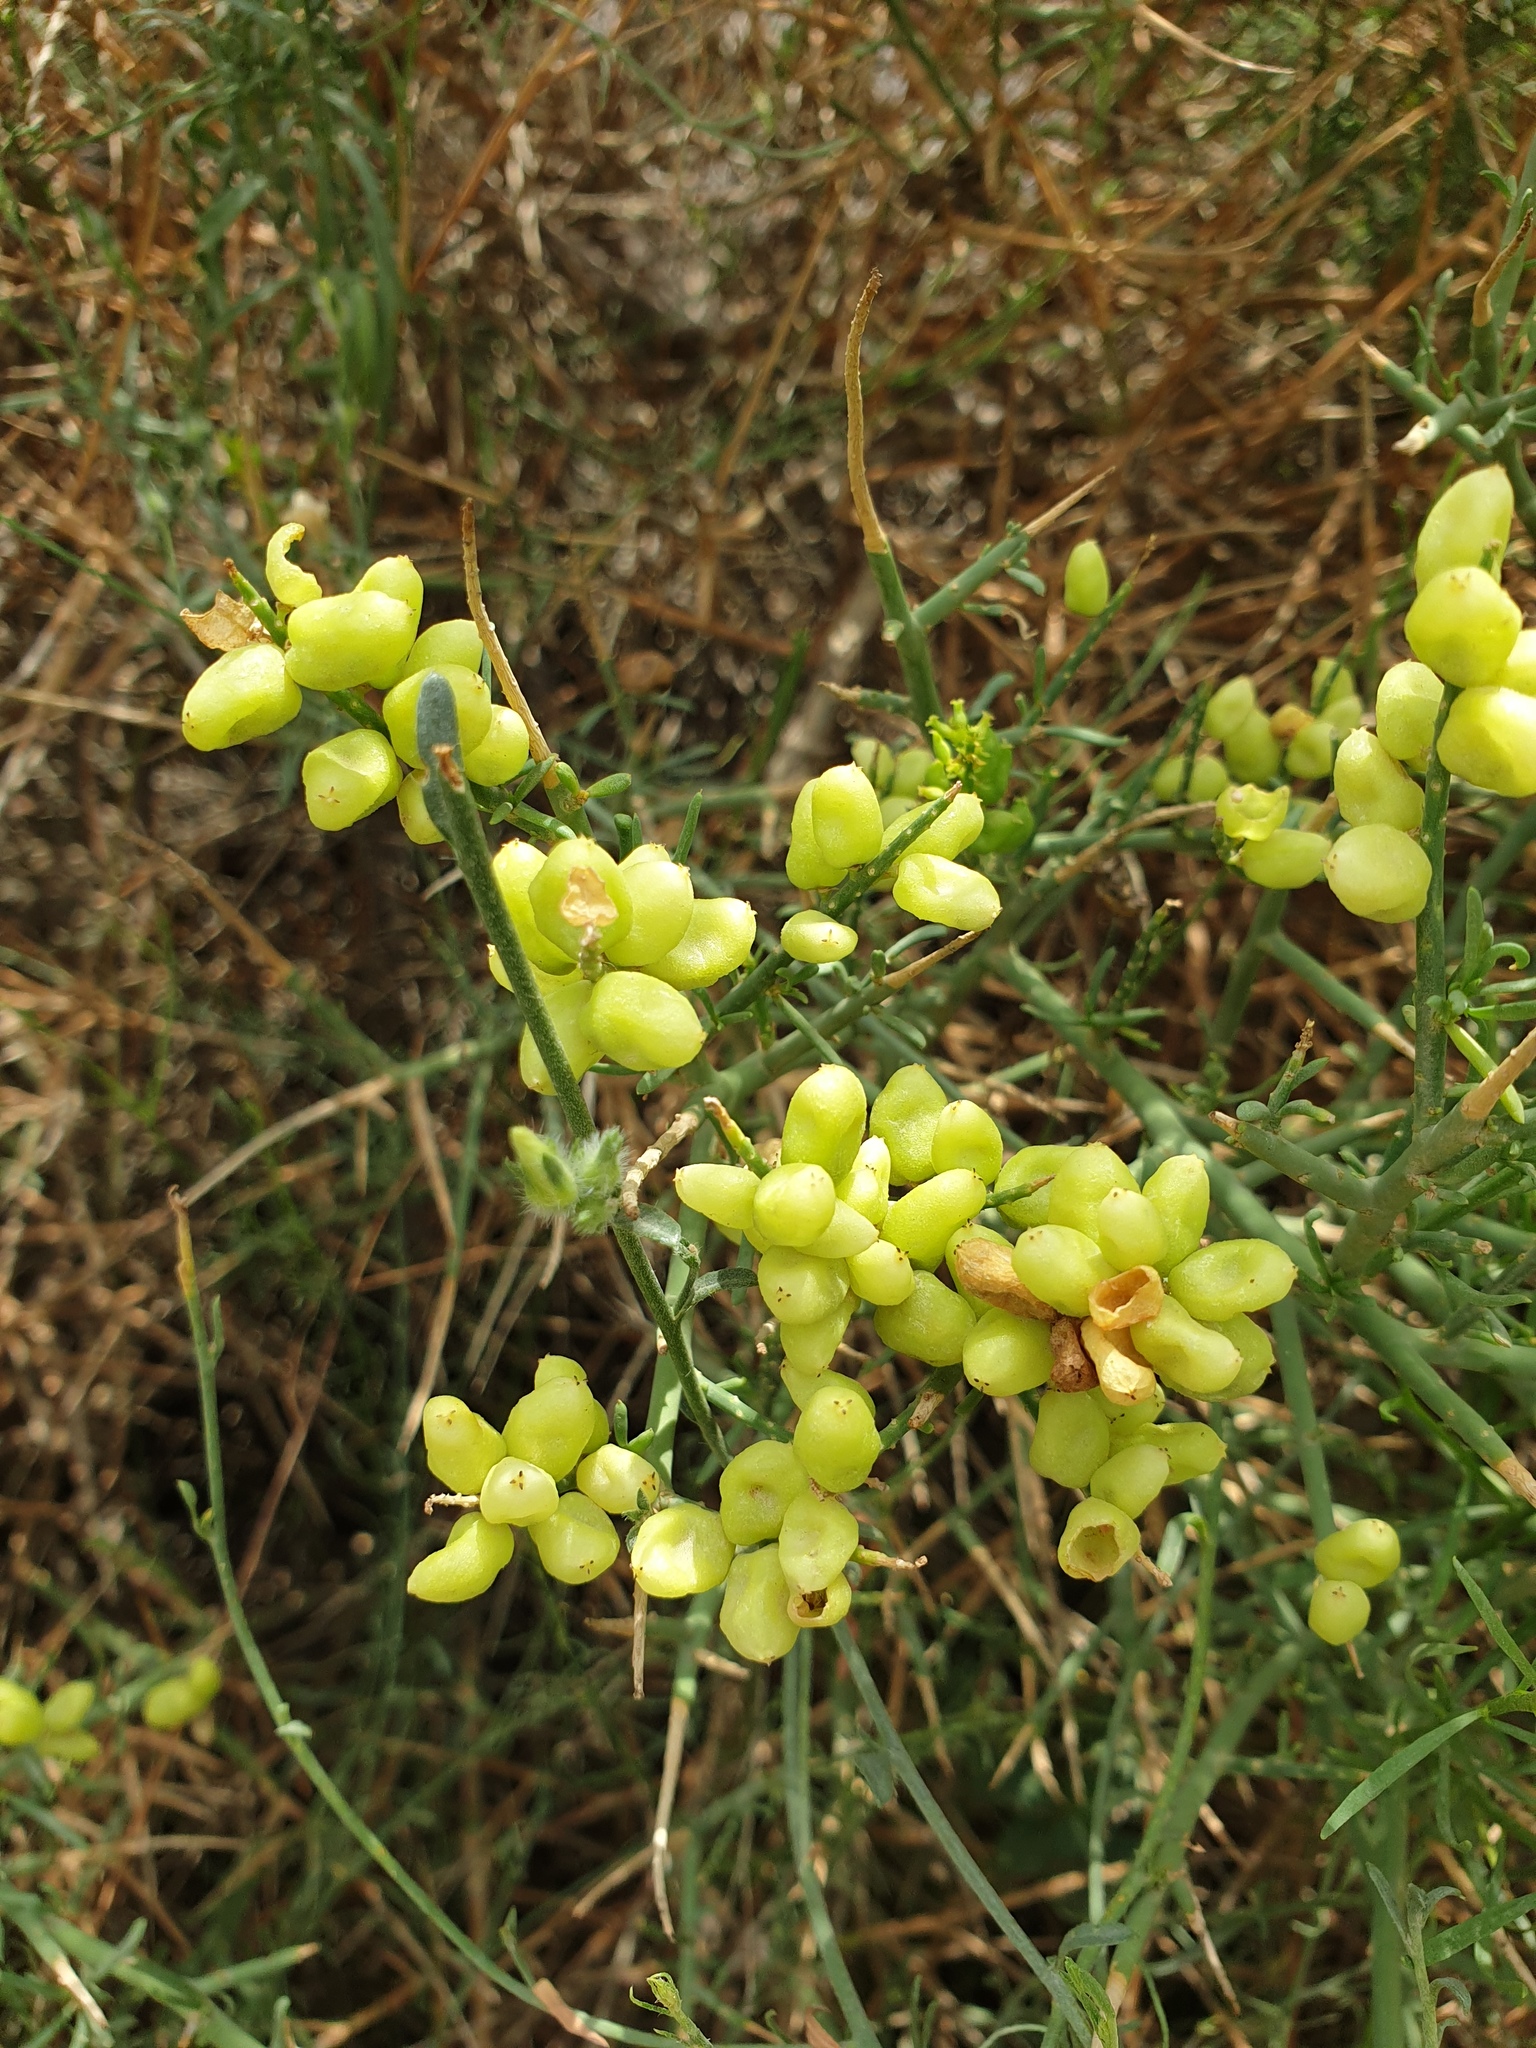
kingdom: Plantae
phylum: Tracheophyta
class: Magnoliopsida
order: Brassicales
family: Resedaceae
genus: Ochradiscus
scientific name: Ochradiscus aucheri
